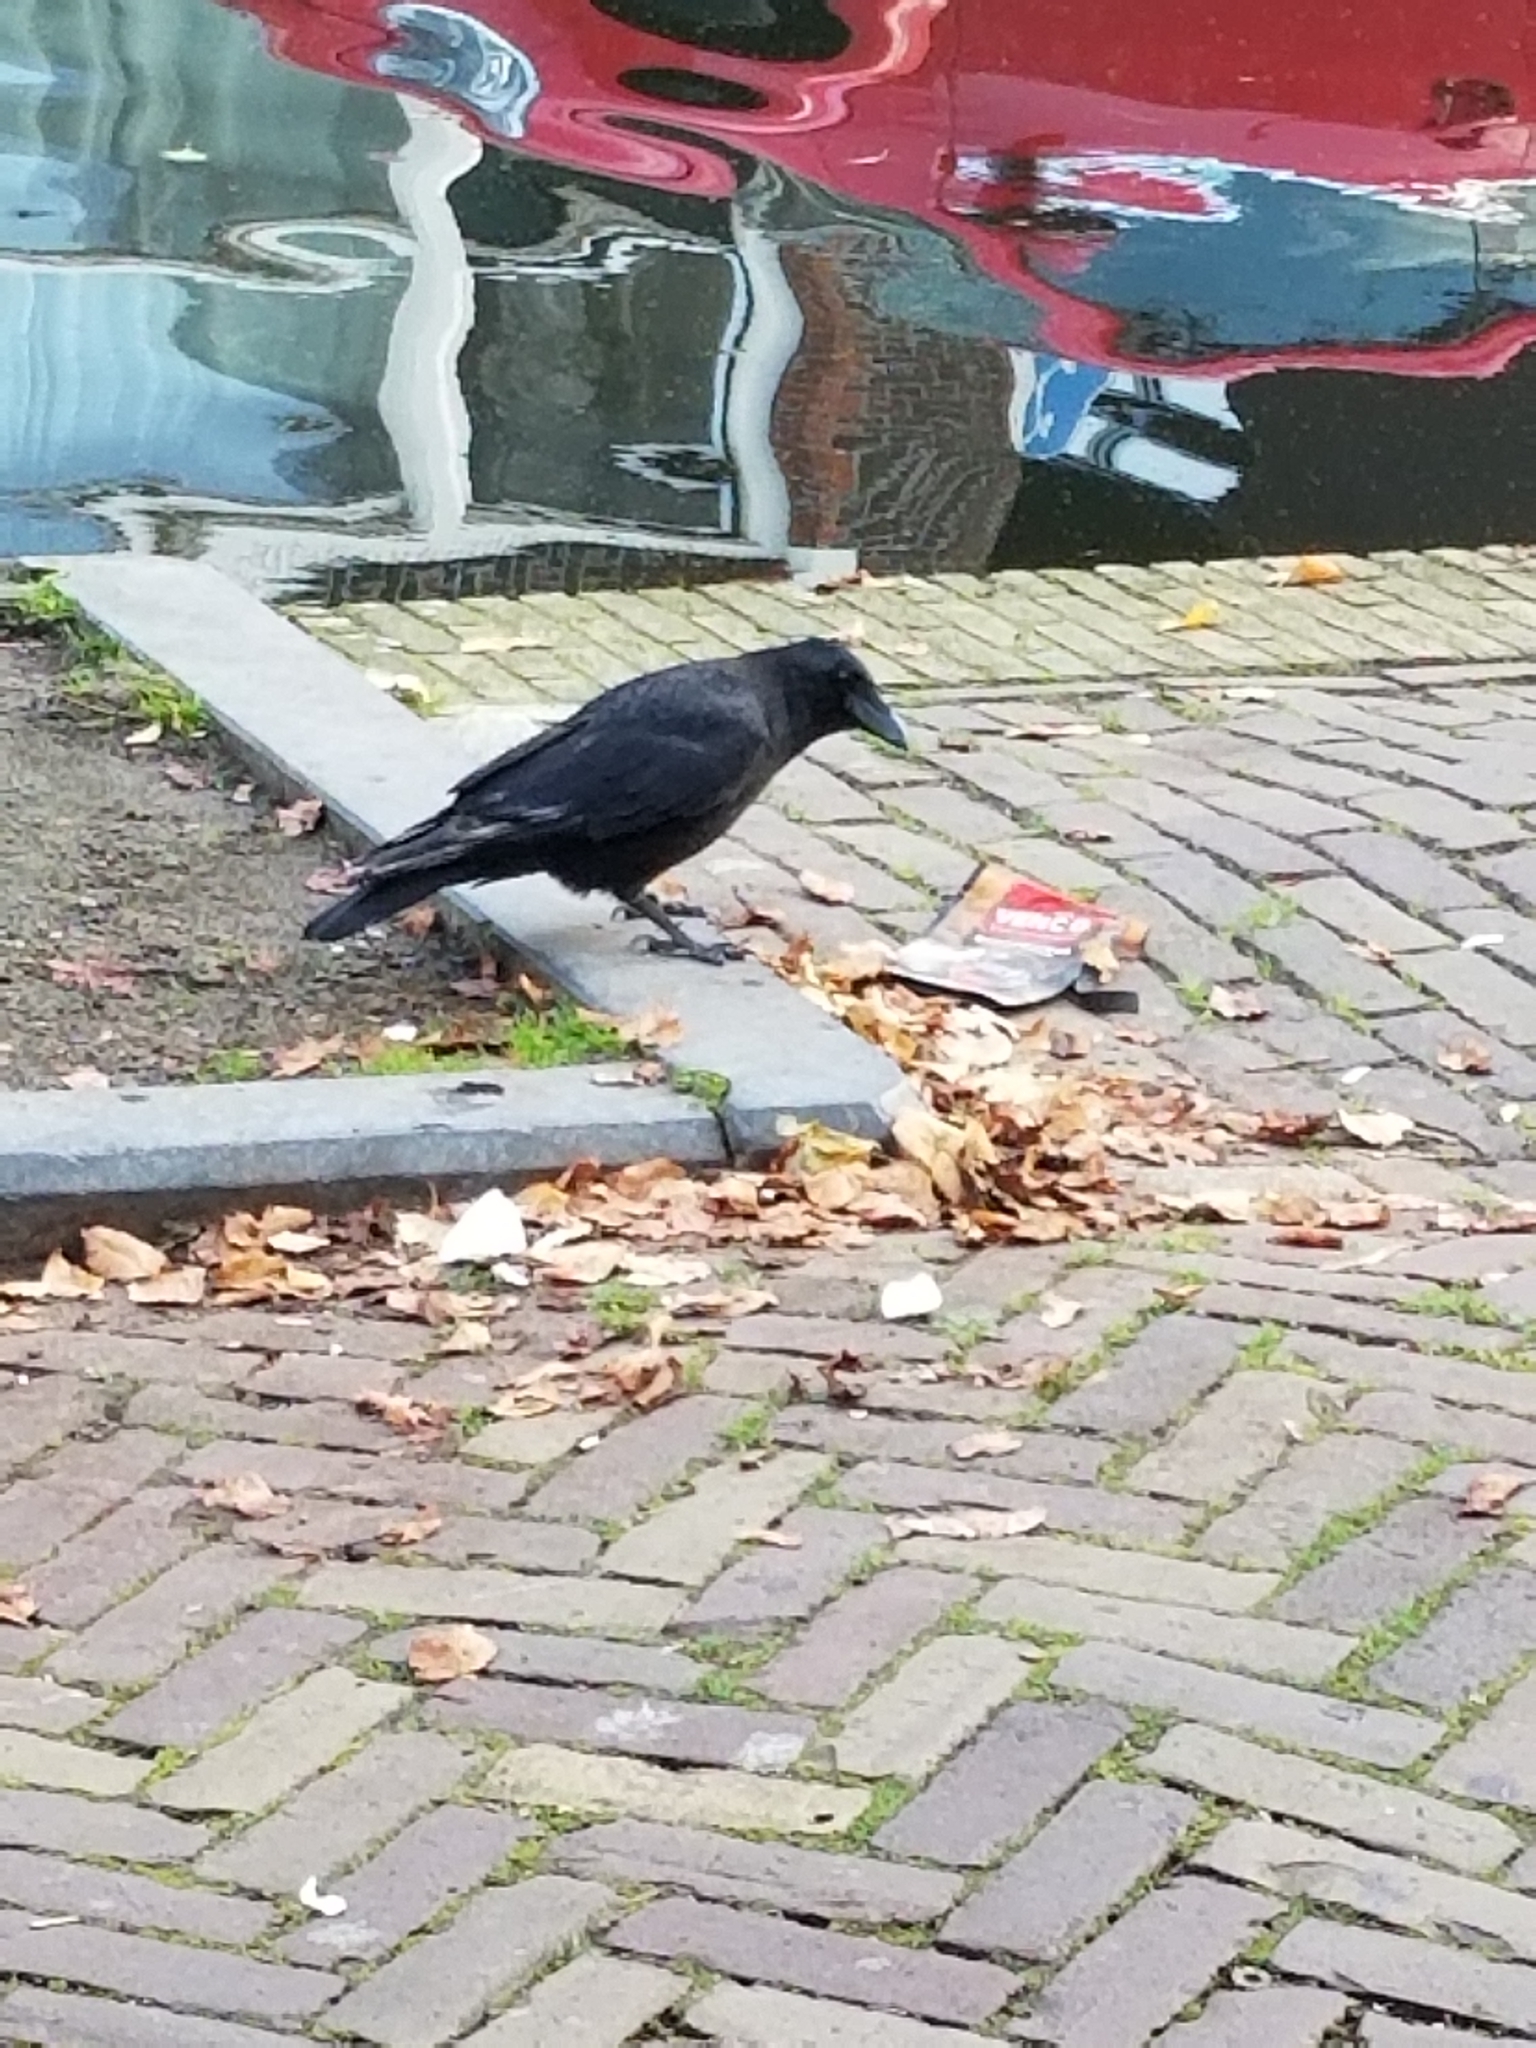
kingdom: Animalia
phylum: Chordata
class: Aves
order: Passeriformes
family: Corvidae
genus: Corvus
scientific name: Corvus corone
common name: Carrion crow
